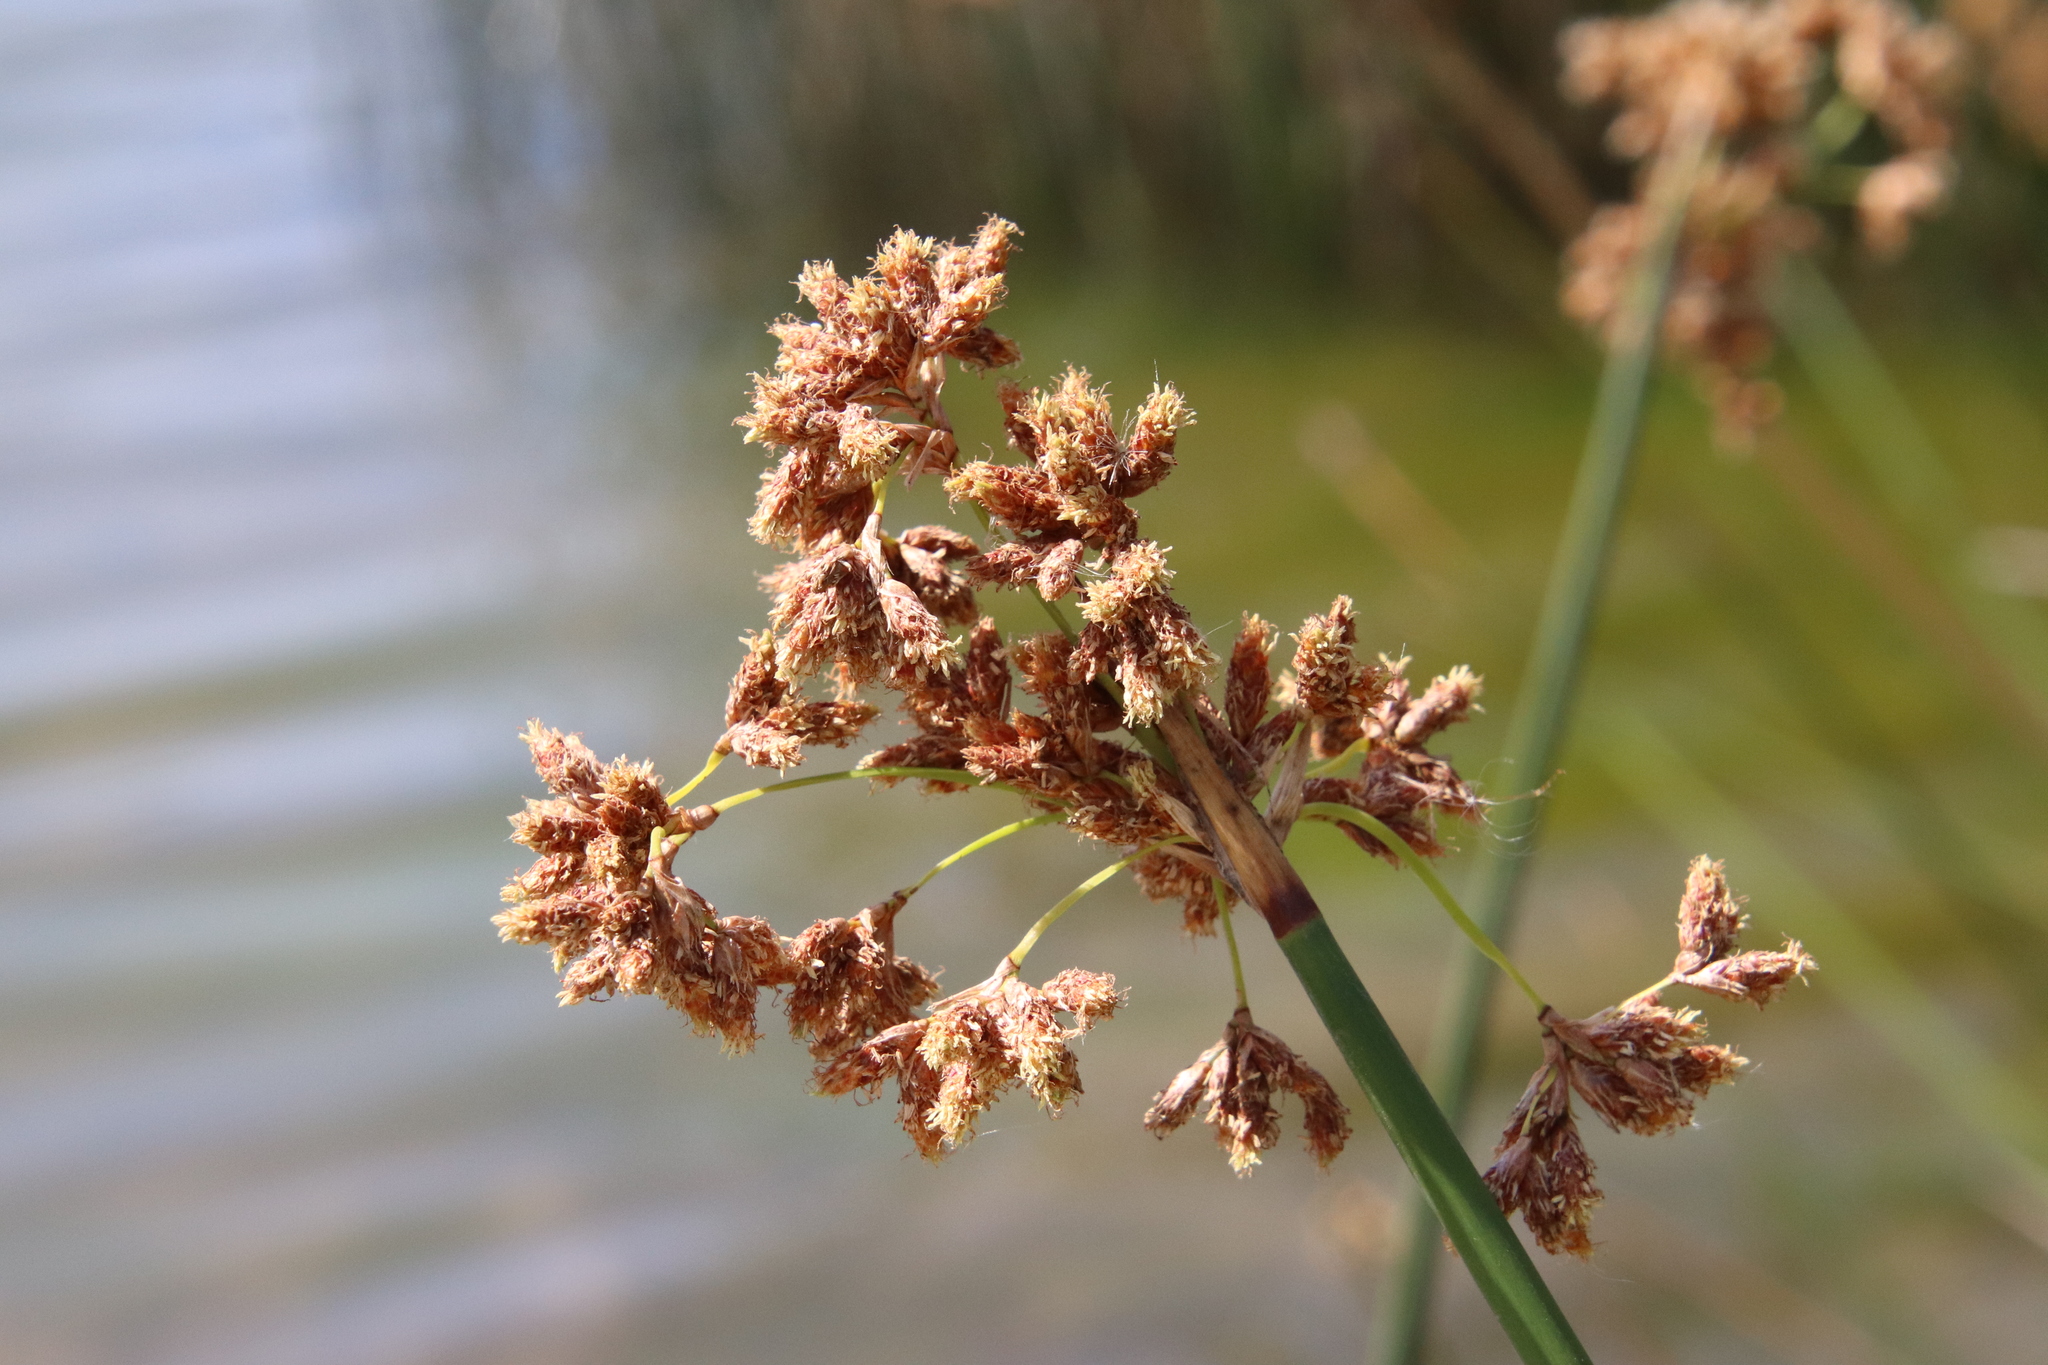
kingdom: Plantae
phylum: Tracheophyta
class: Liliopsida
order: Poales
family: Cyperaceae
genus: Schoenoplectus
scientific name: Schoenoplectus californicus
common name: California bulrush
